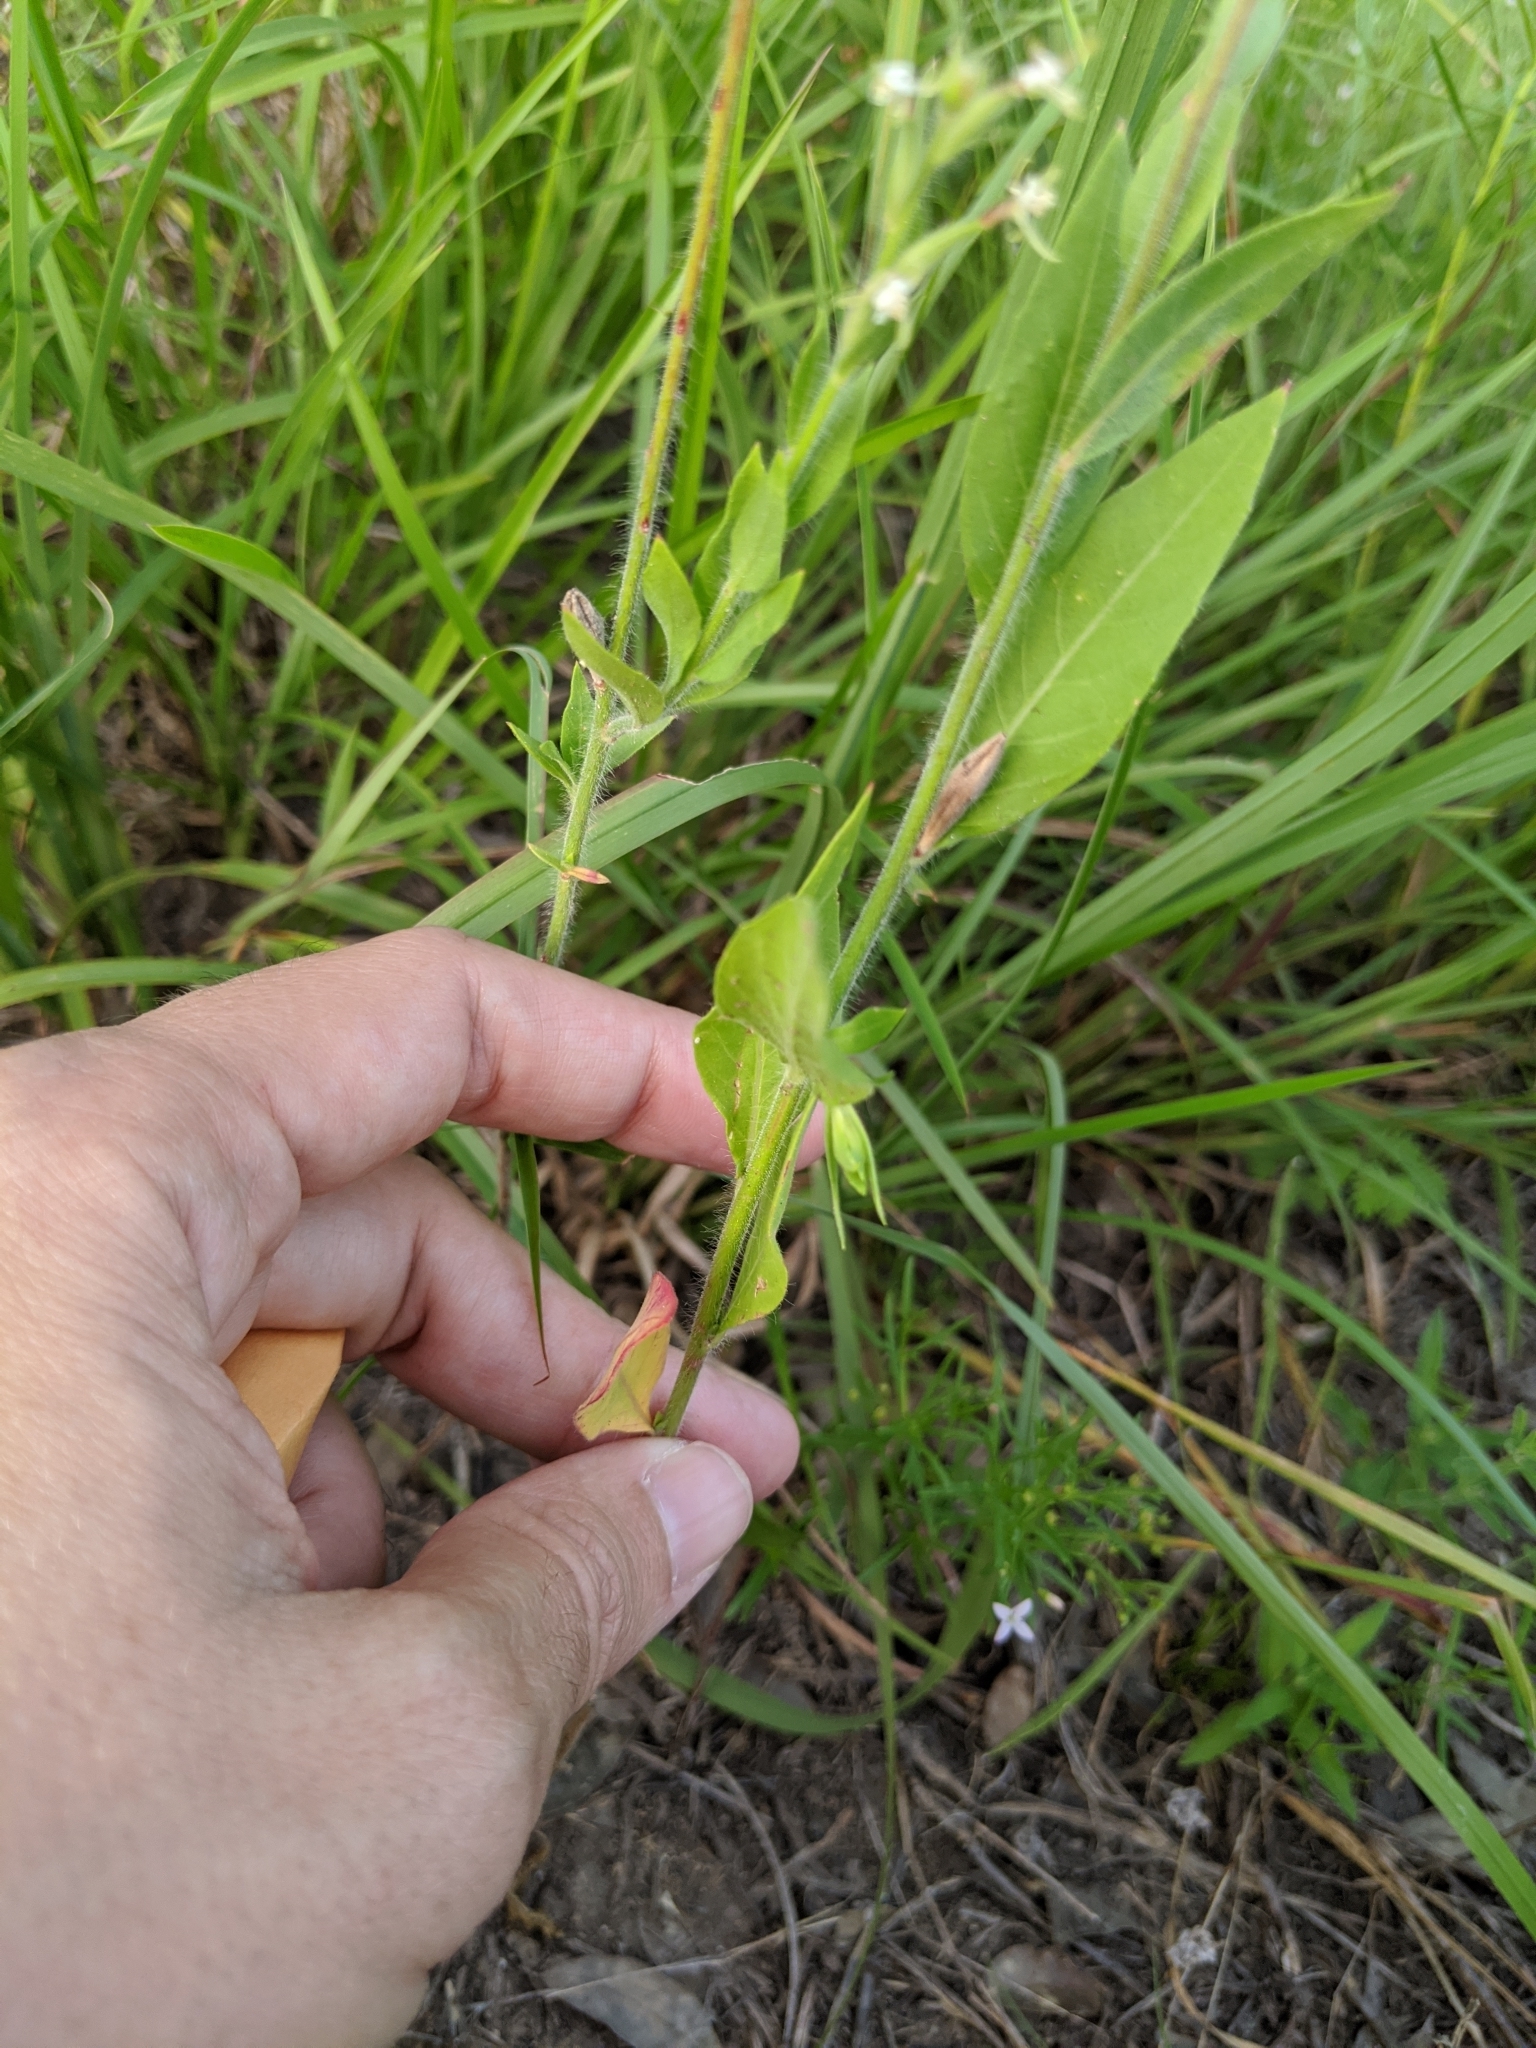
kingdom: Plantae
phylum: Tracheophyta
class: Magnoliopsida
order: Myrtales
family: Onagraceae
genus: Oenothera
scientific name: Oenothera curtiflora
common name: Velvetweed
